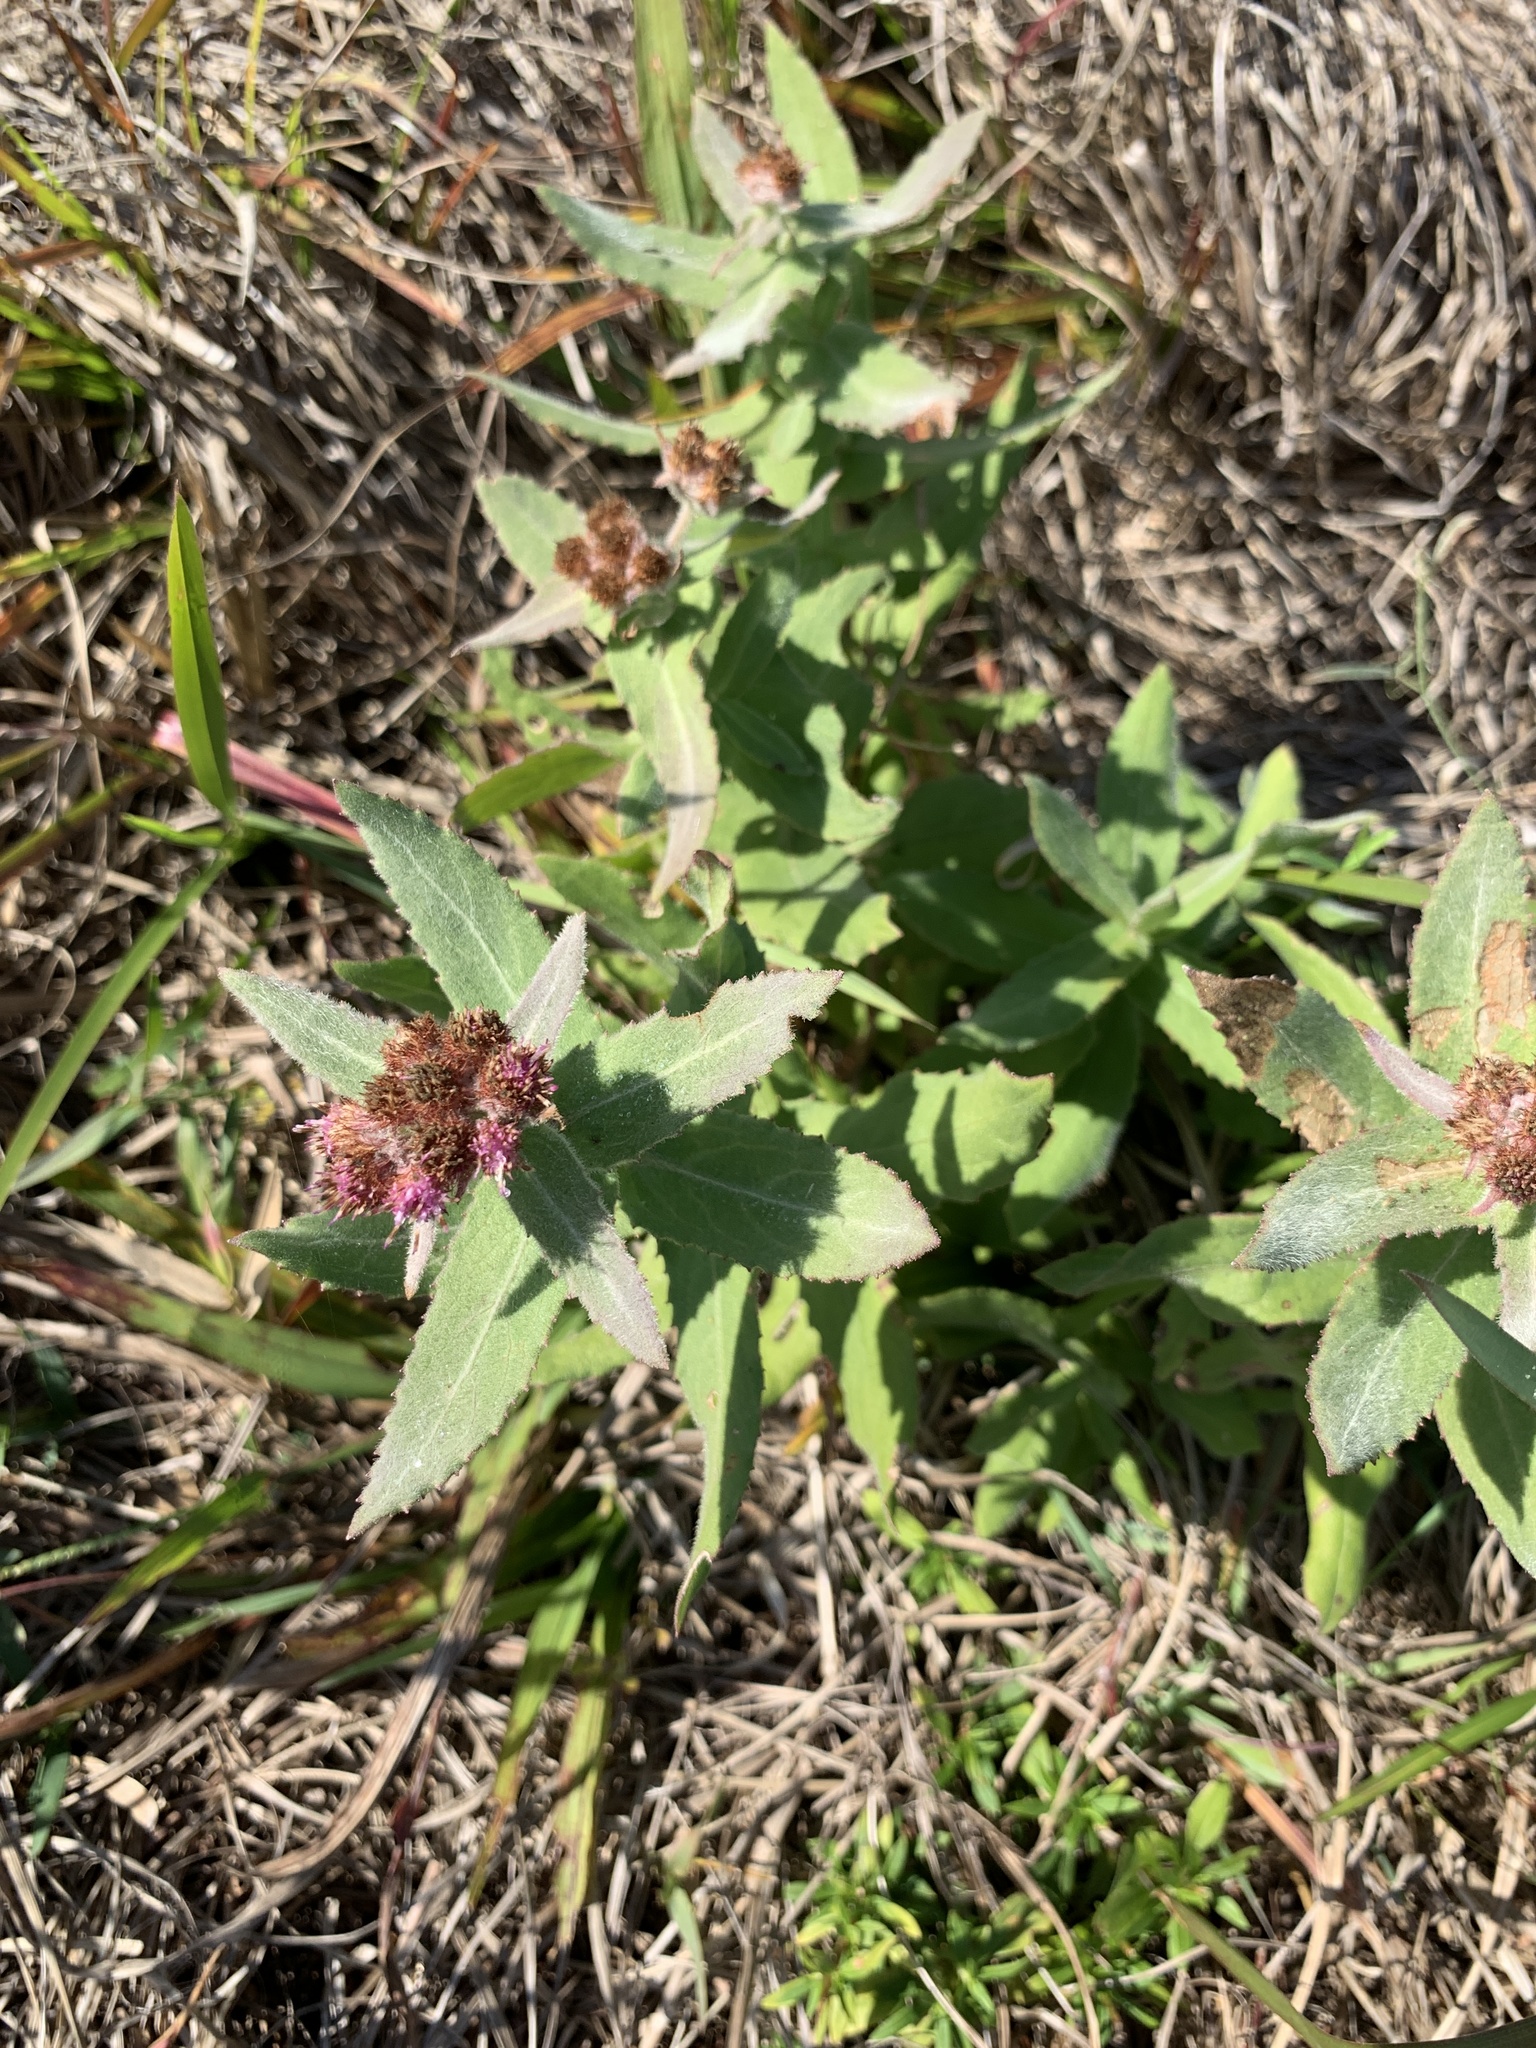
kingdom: Plantae
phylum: Tracheophyta
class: Magnoliopsida
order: Asterales
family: Asteraceae
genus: Pluchea
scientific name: Pluchea baccharis
